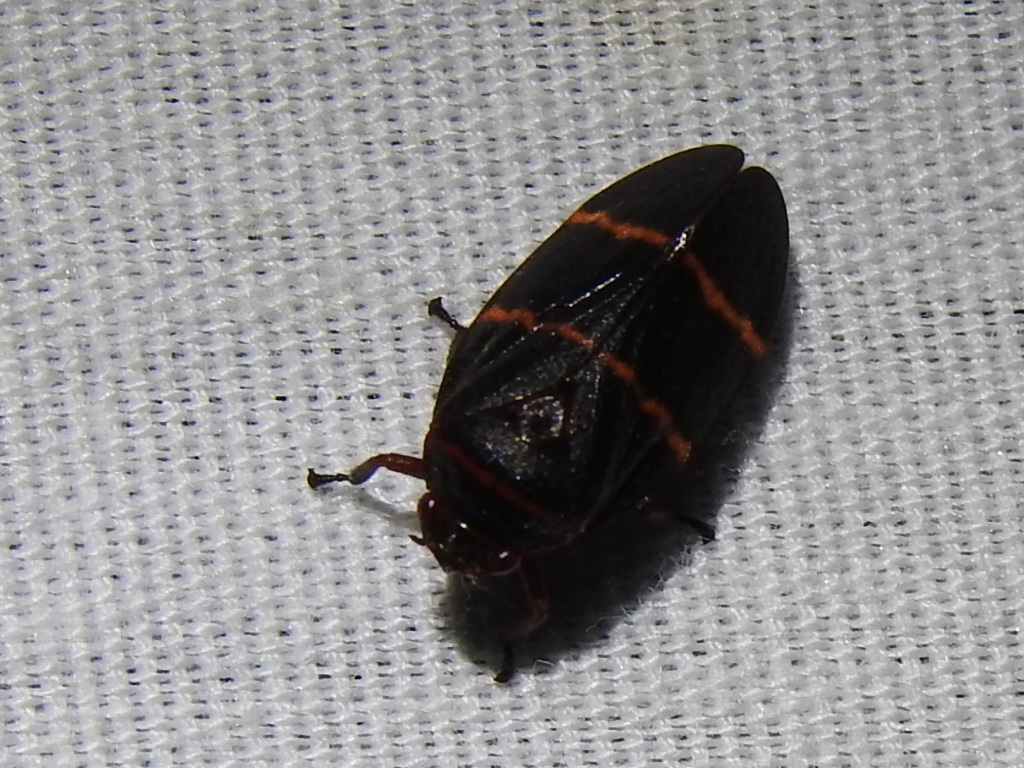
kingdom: Animalia
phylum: Arthropoda
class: Insecta
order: Hemiptera
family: Cercopidae
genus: Prosapia
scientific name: Prosapia bicincta
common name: Twolined spittlebug
